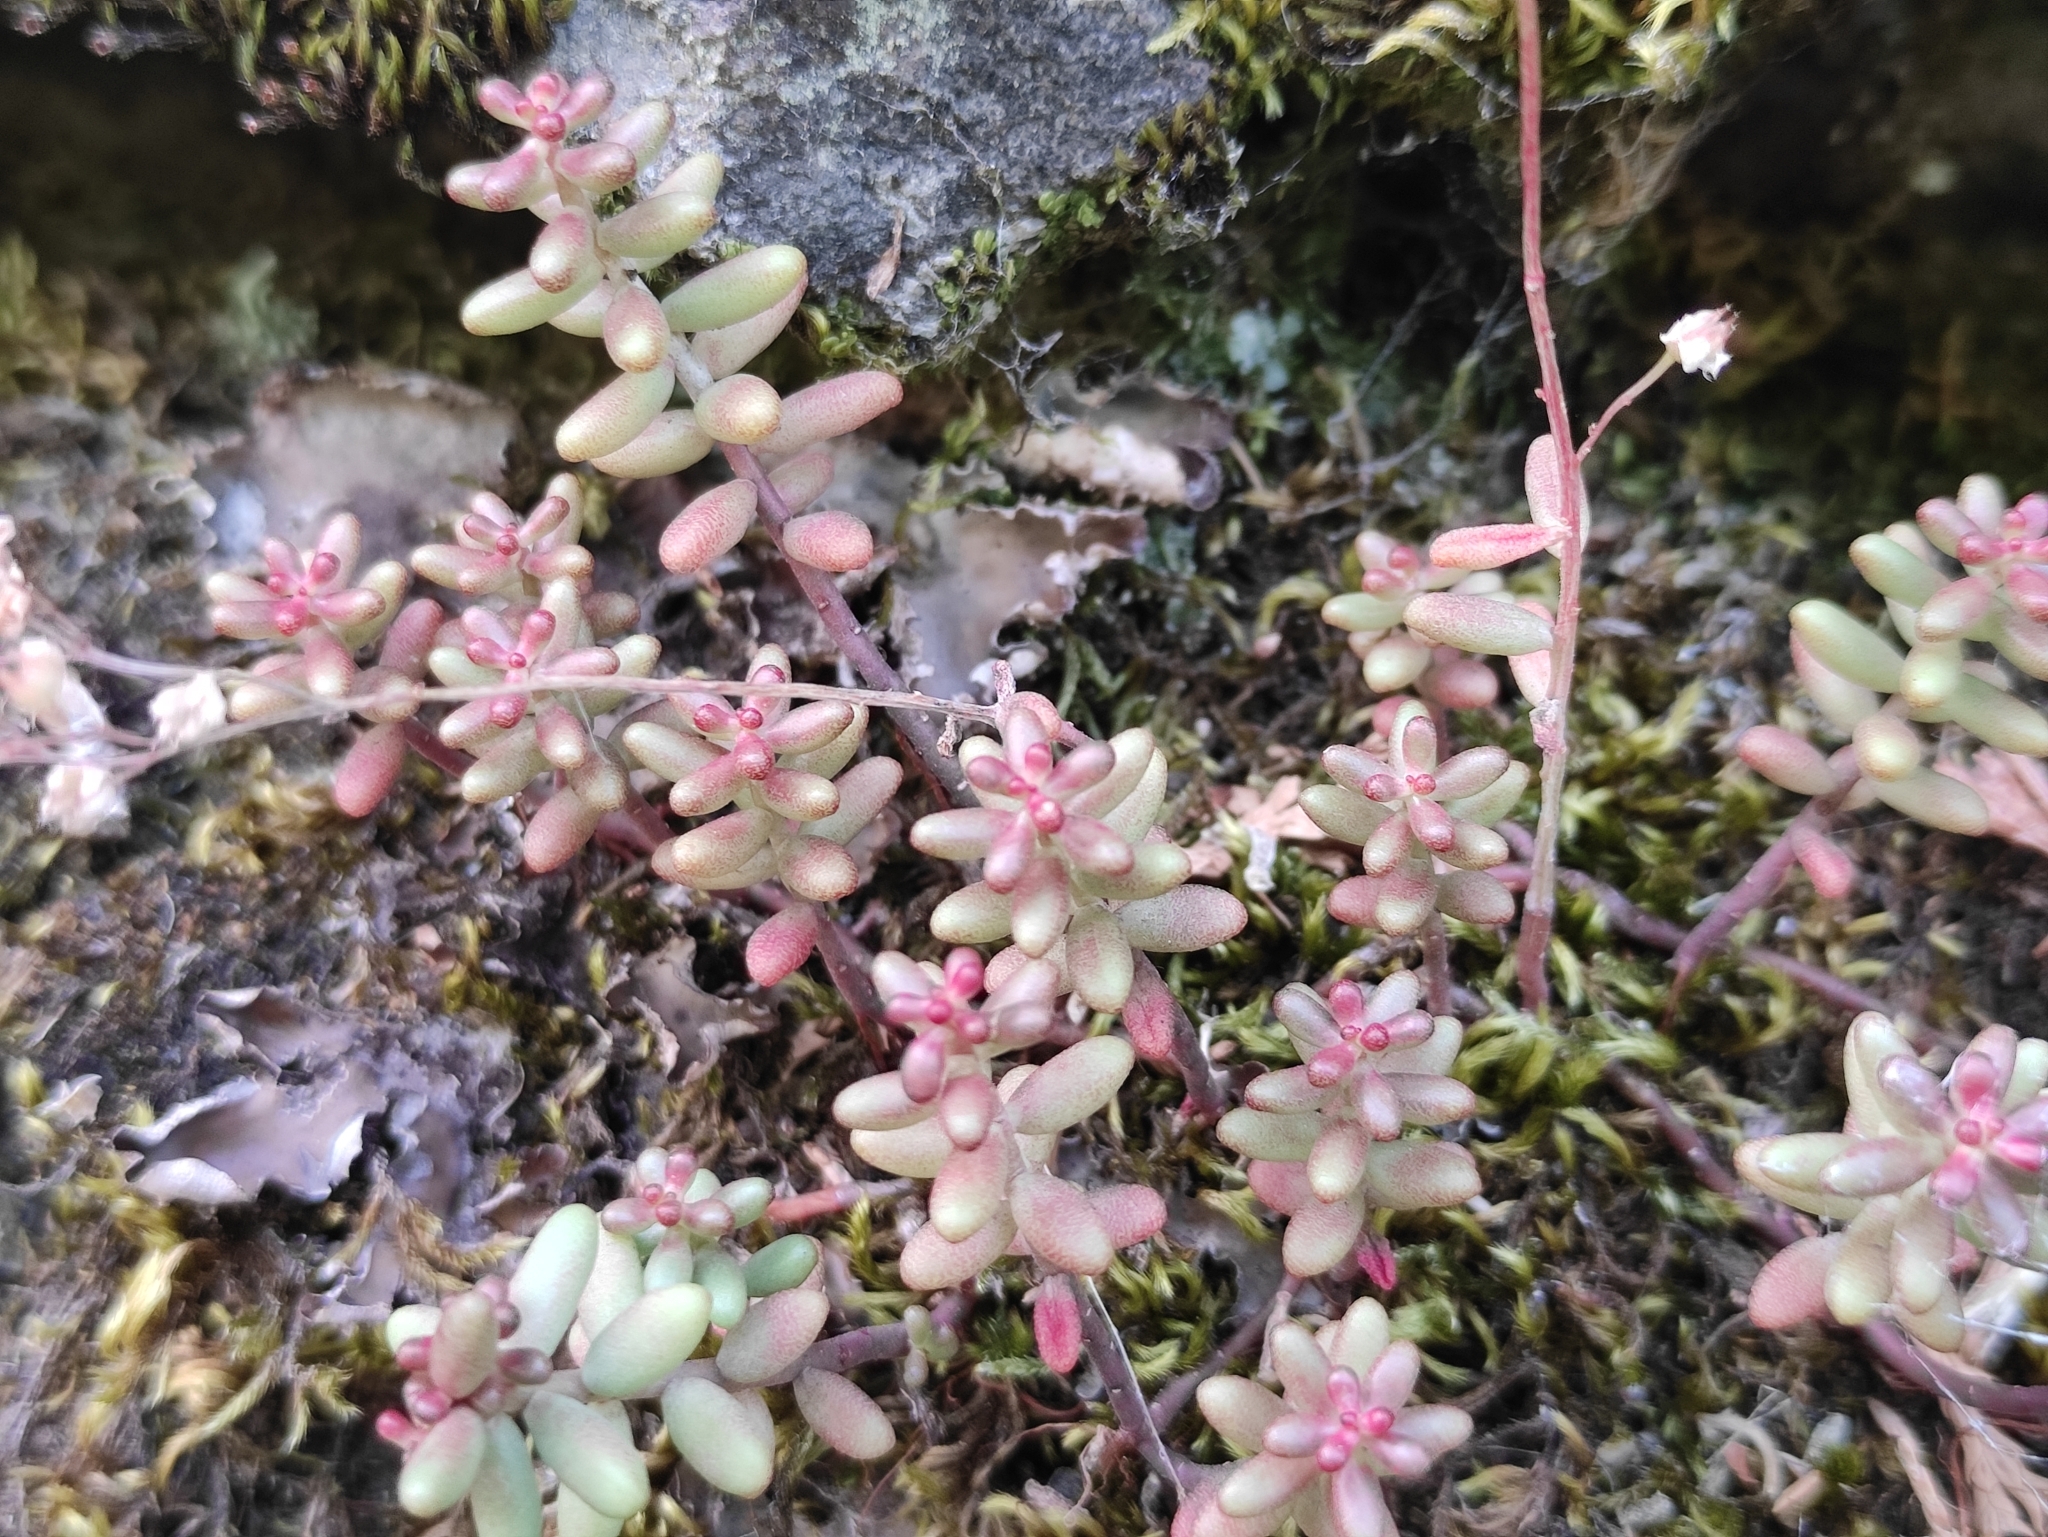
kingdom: Plantae
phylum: Tracheophyta
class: Magnoliopsida
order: Saxifragales
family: Crassulaceae
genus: Sedum
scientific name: Sedum album
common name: White stonecrop
